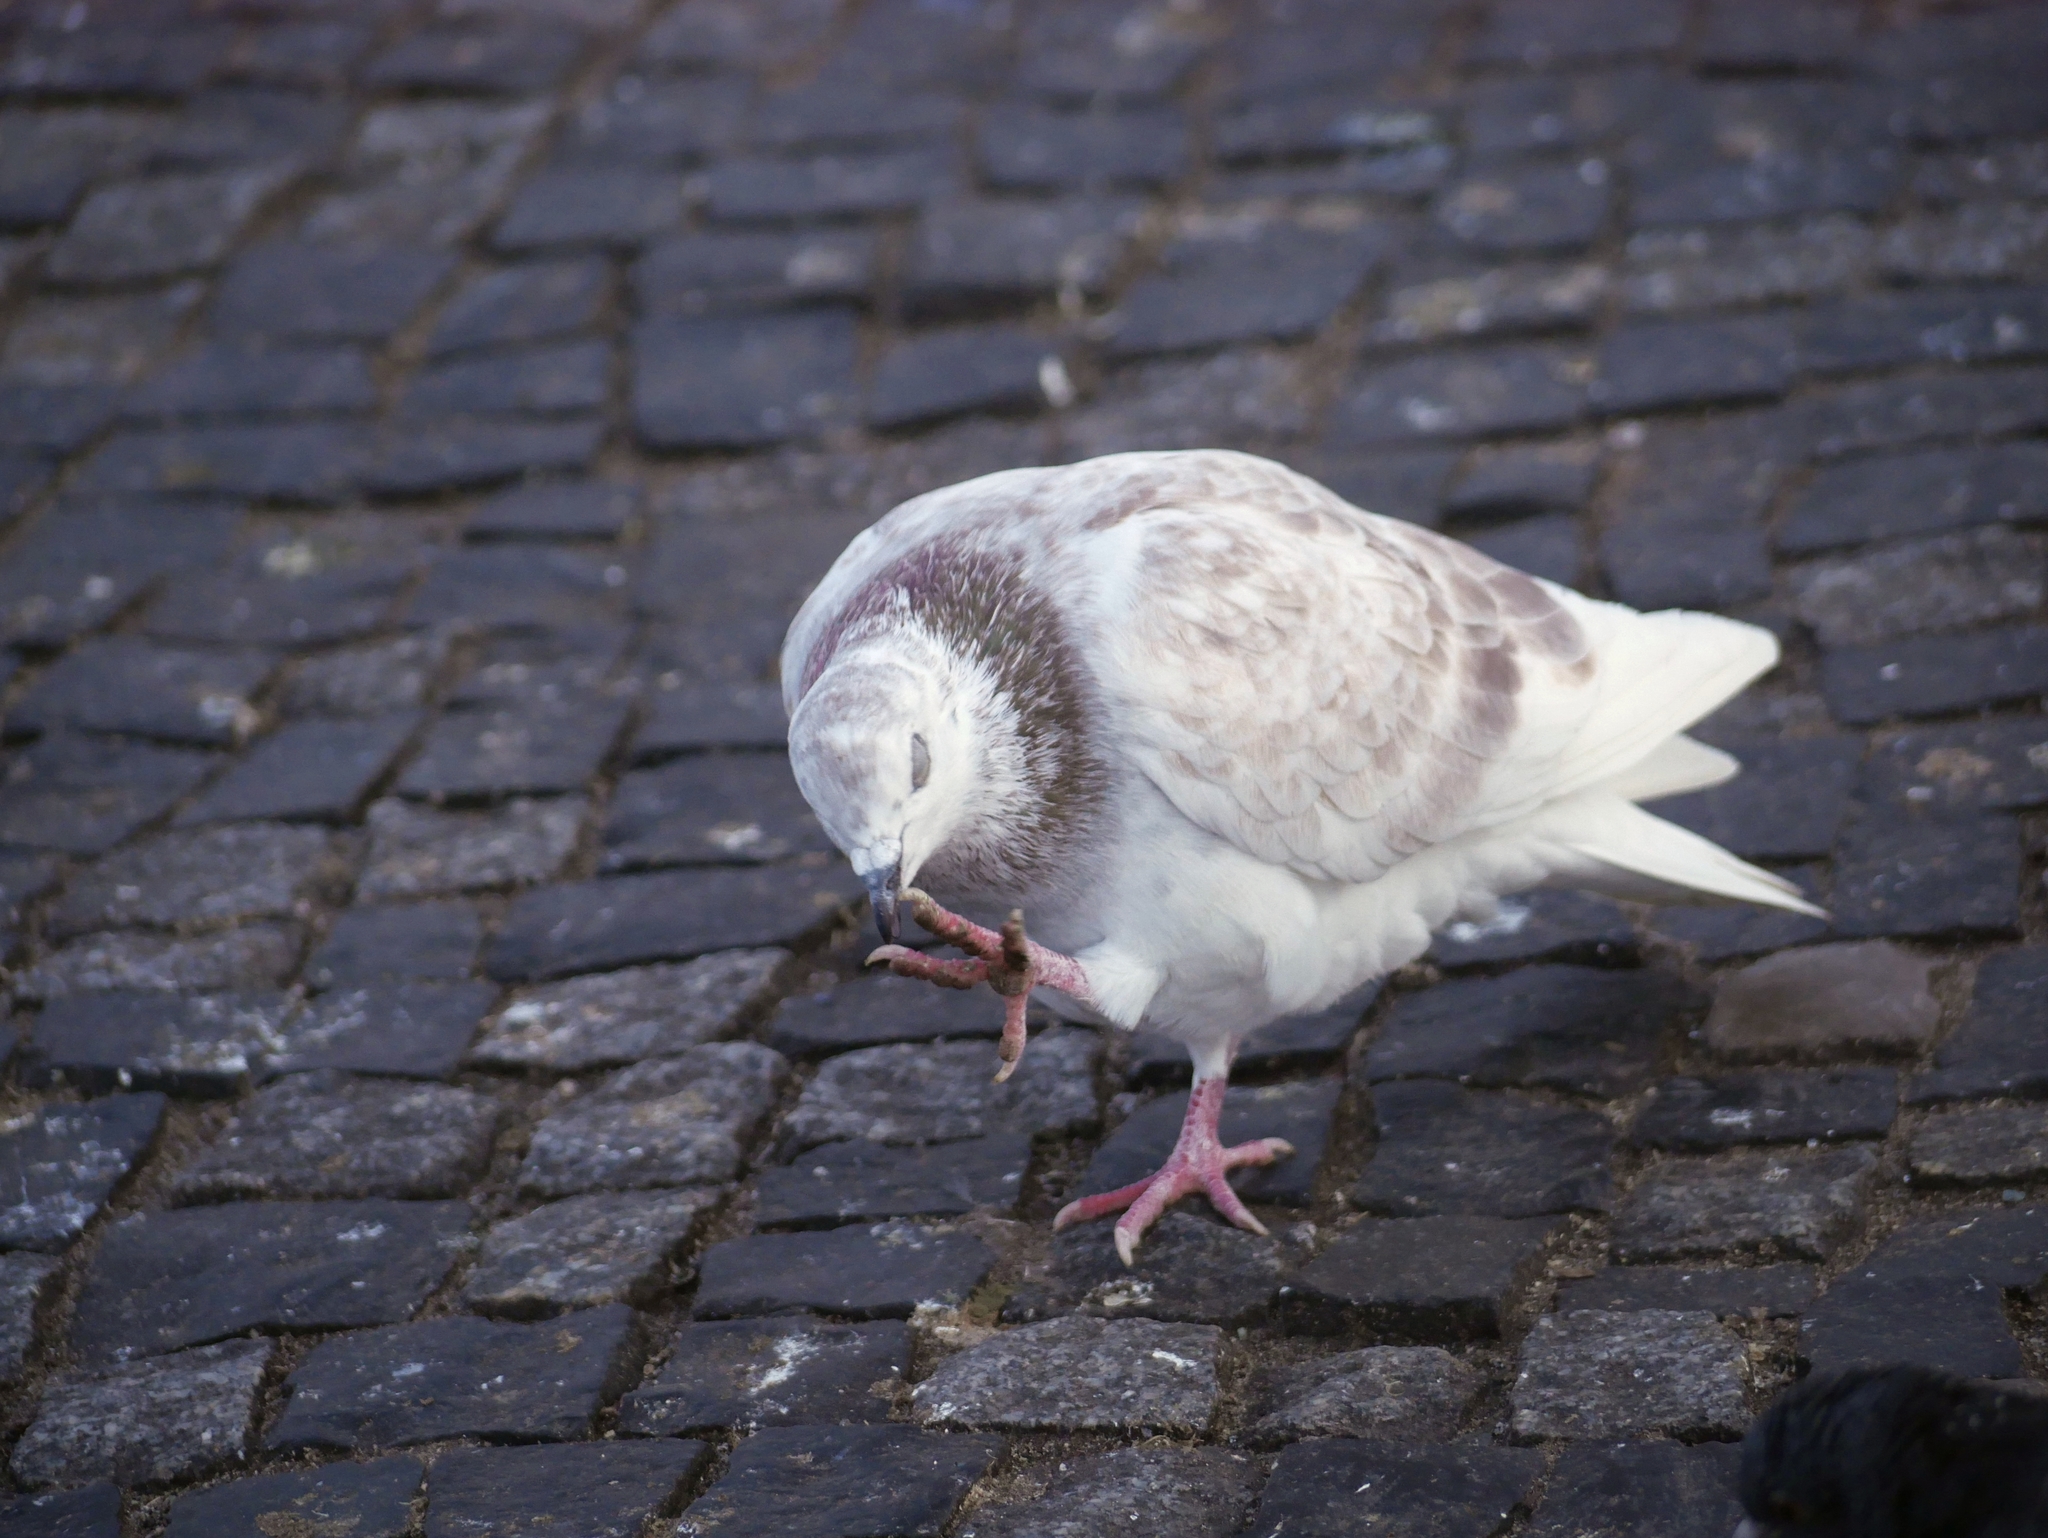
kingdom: Animalia
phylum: Chordata
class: Aves
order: Columbiformes
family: Columbidae
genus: Columba
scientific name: Columba livia
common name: Rock pigeon
